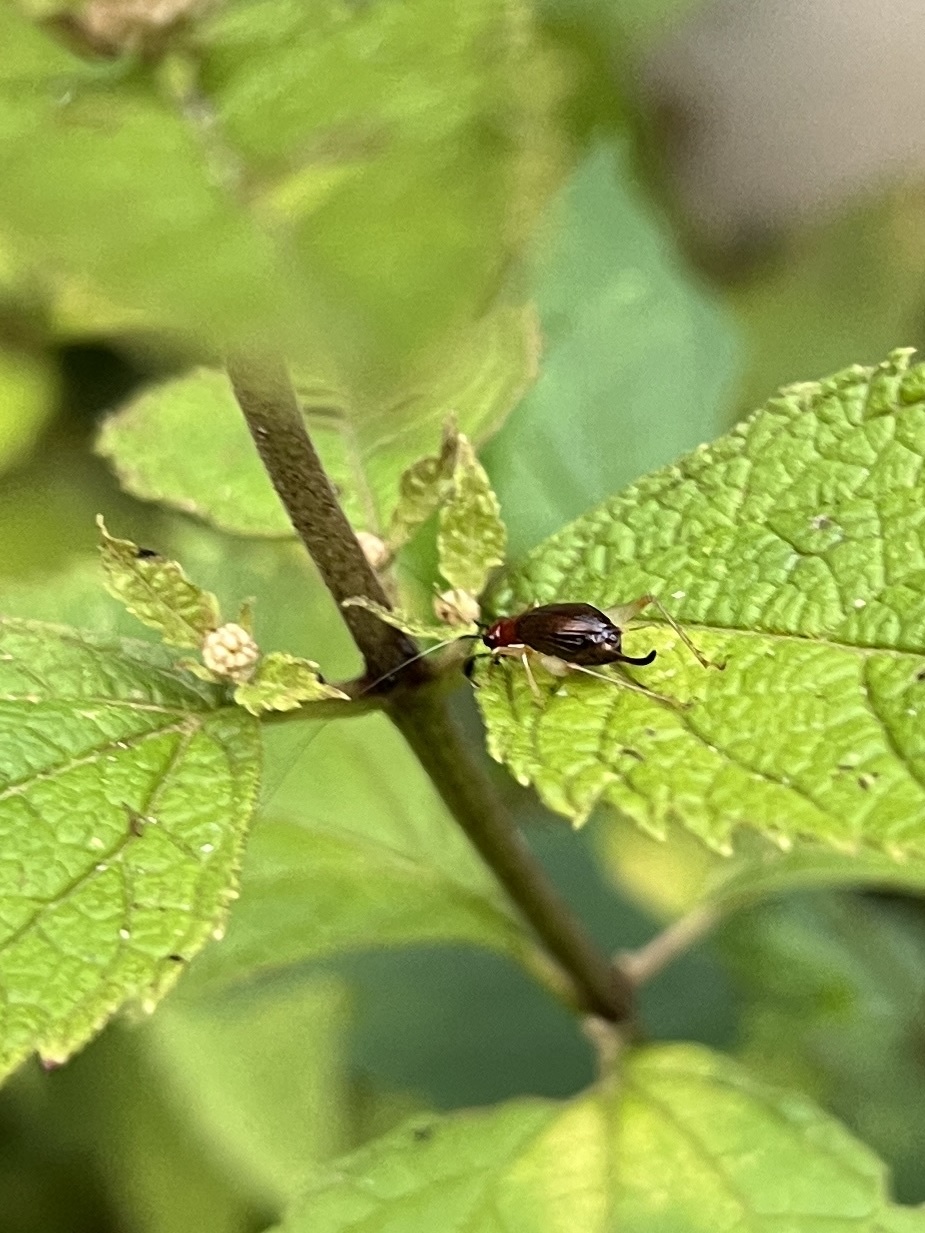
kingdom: Animalia
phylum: Arthropoda
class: Insecta
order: Orthoptera
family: Trigonidiidae
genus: Phyllopalpus
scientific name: Phyllopalpus pulchellus
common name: Handsome trig
